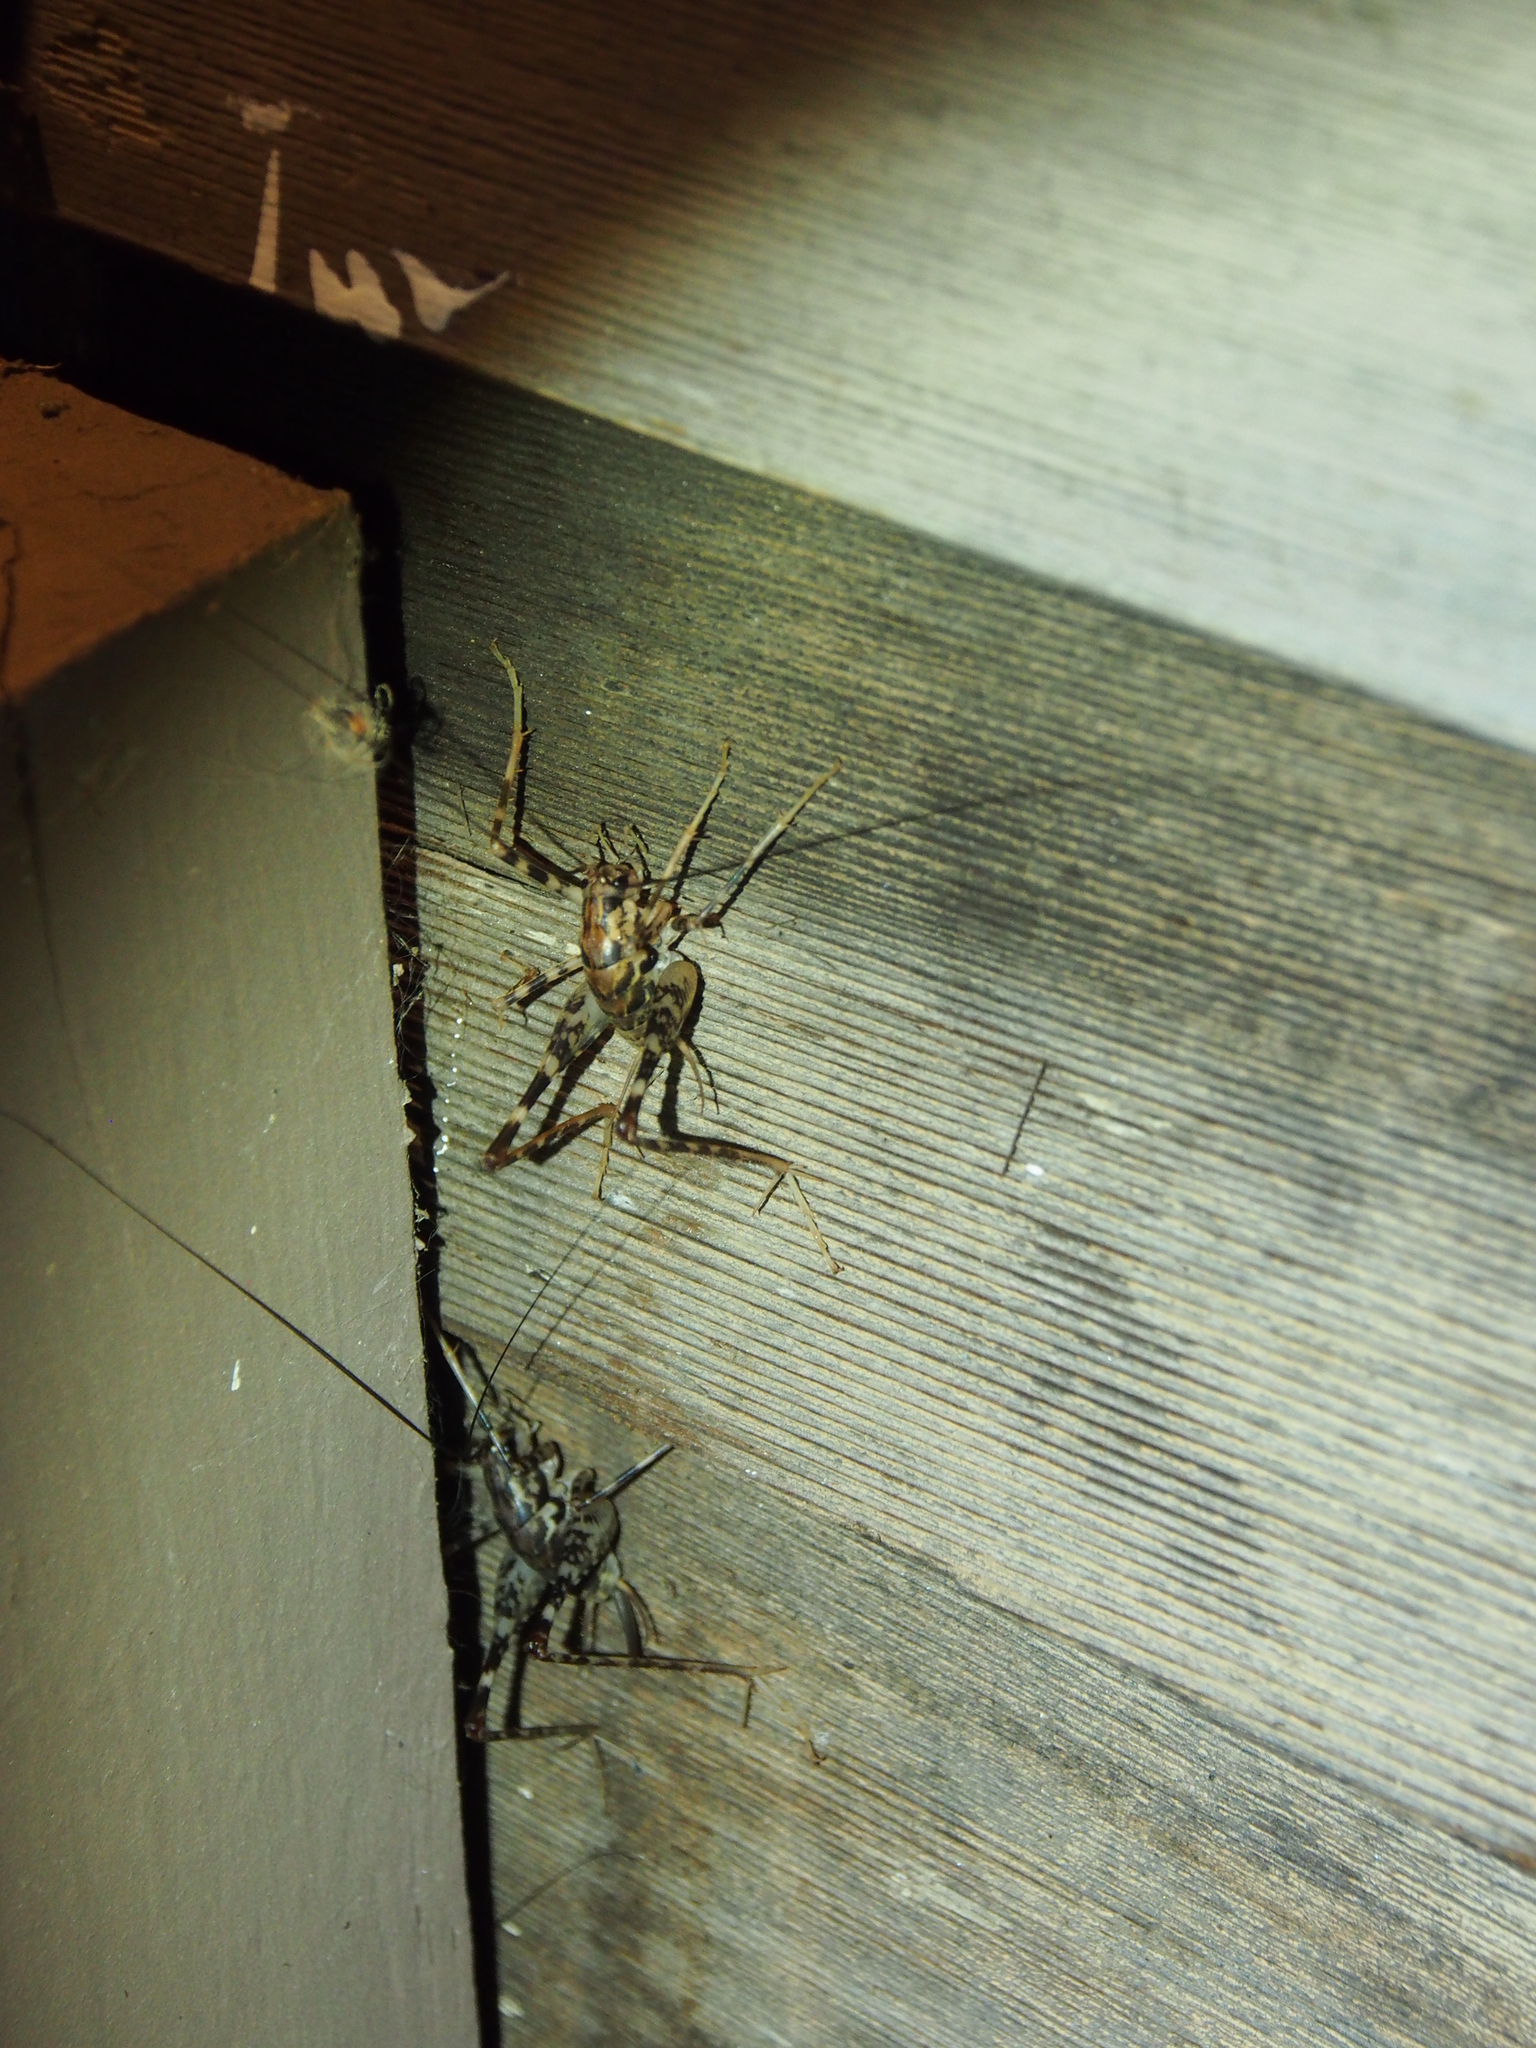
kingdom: Animalia
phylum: Arthropoda
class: Insecta
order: Orthoptera
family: Rhaphidophoridae
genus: Diestrammena
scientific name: Diestrammena japanica
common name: Japanese camel cricket
